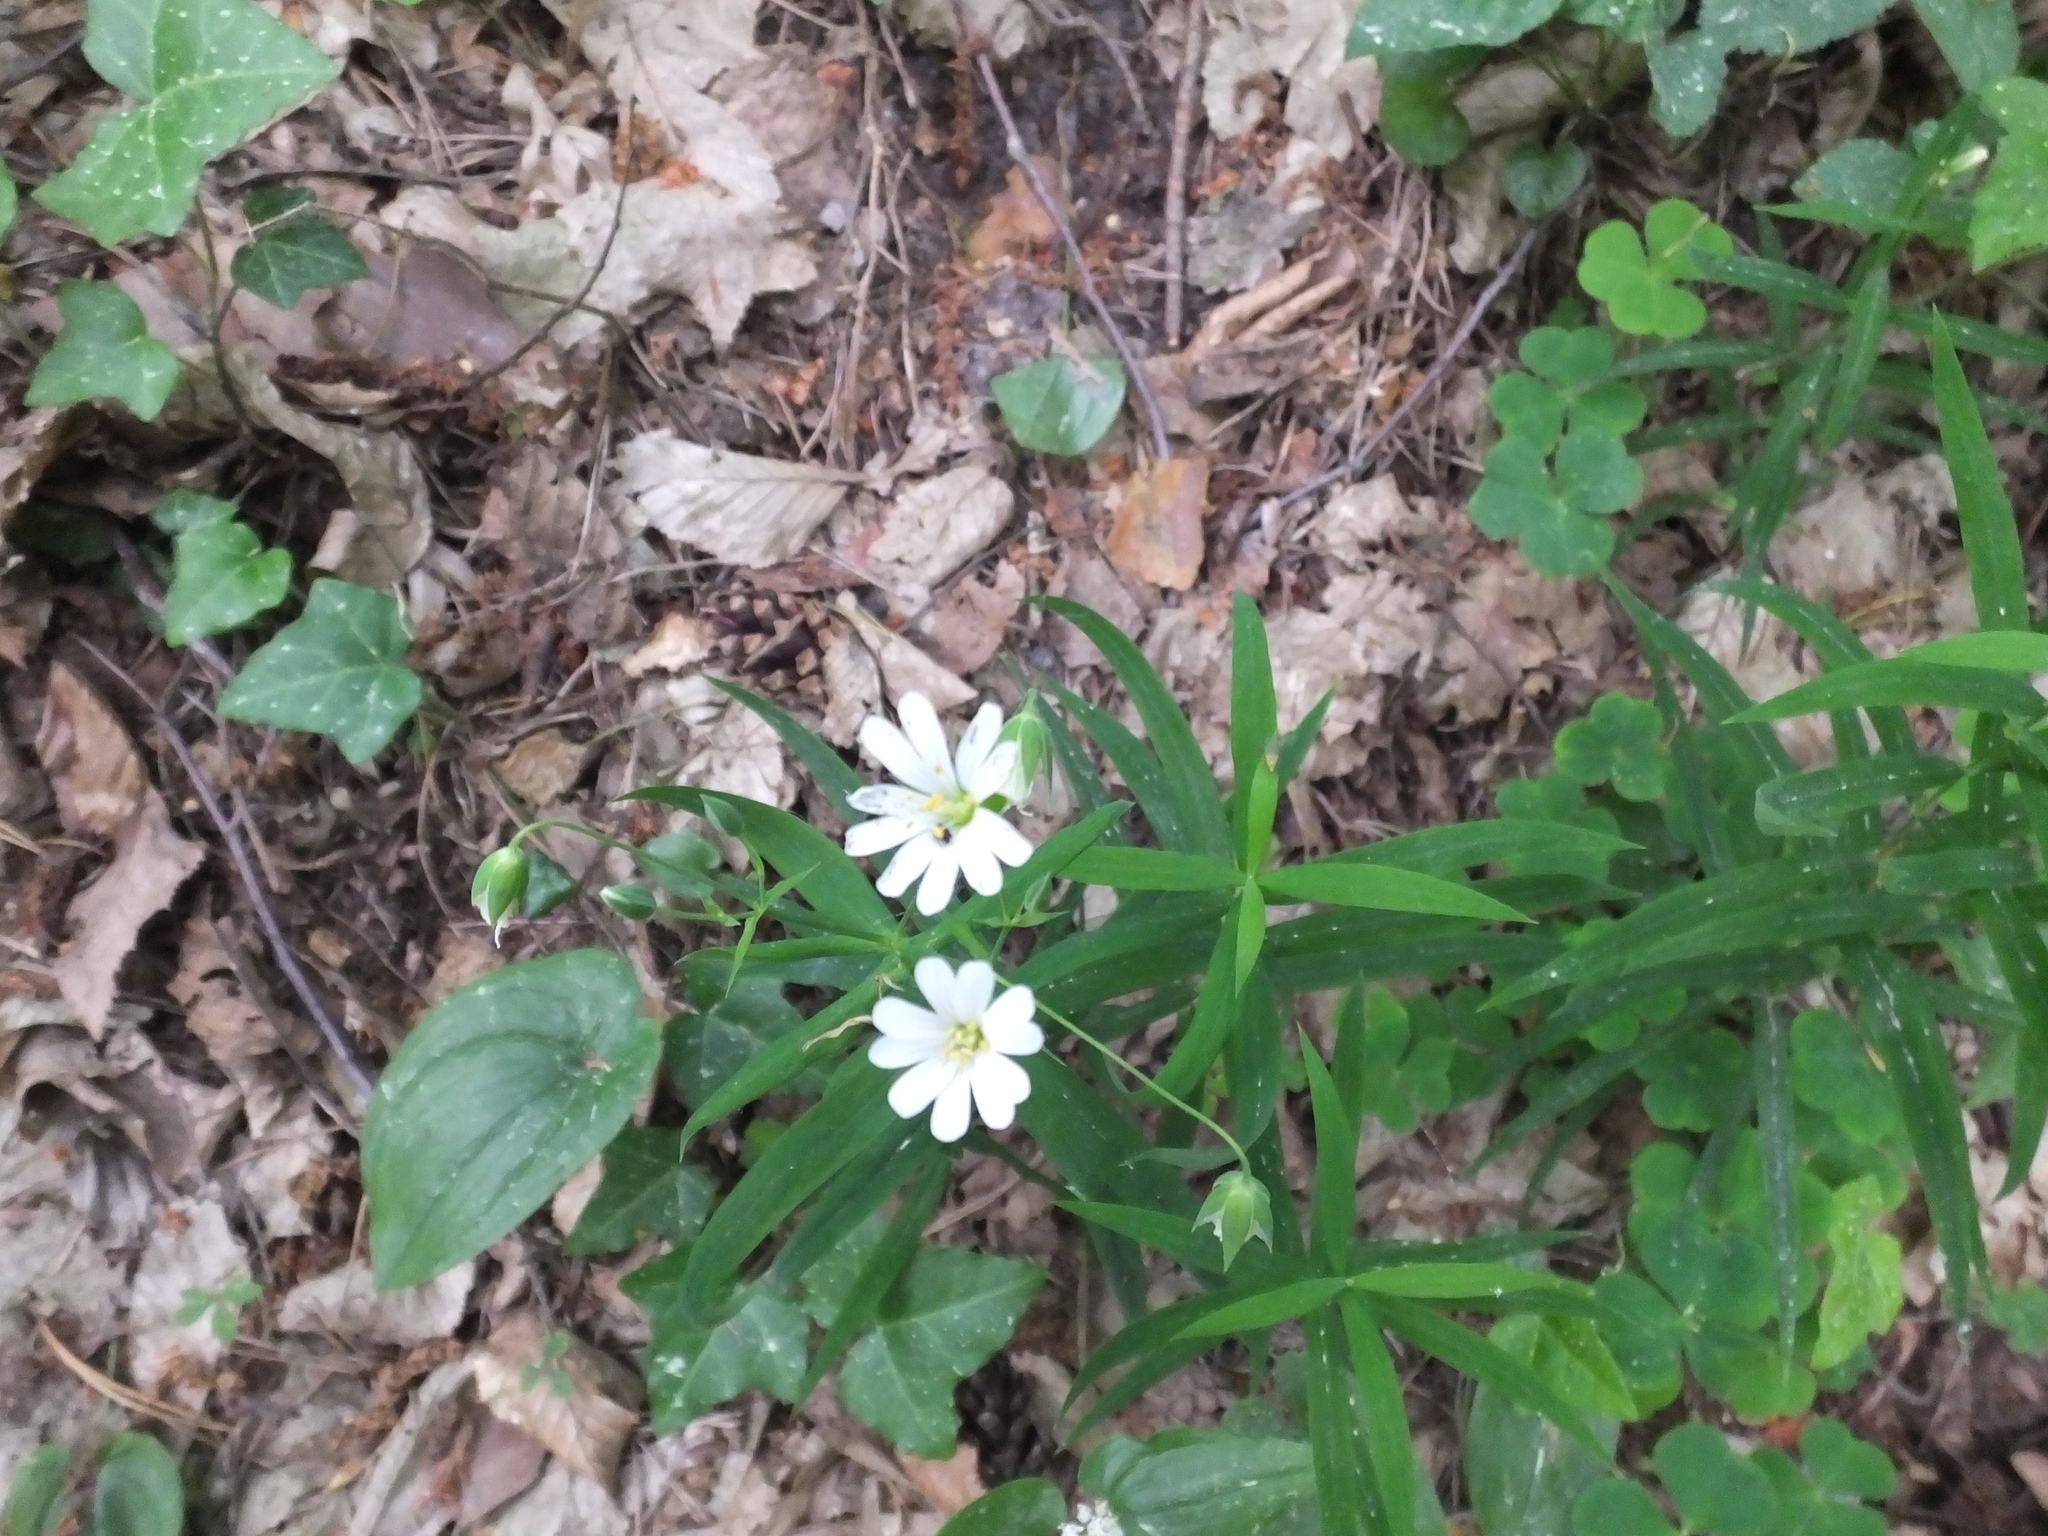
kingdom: Plantae
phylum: Tracheophyta
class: Magnoliopsida
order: Caryophyllales
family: Caryophyllaceae
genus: Rabelera
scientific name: Rabelera holostea
